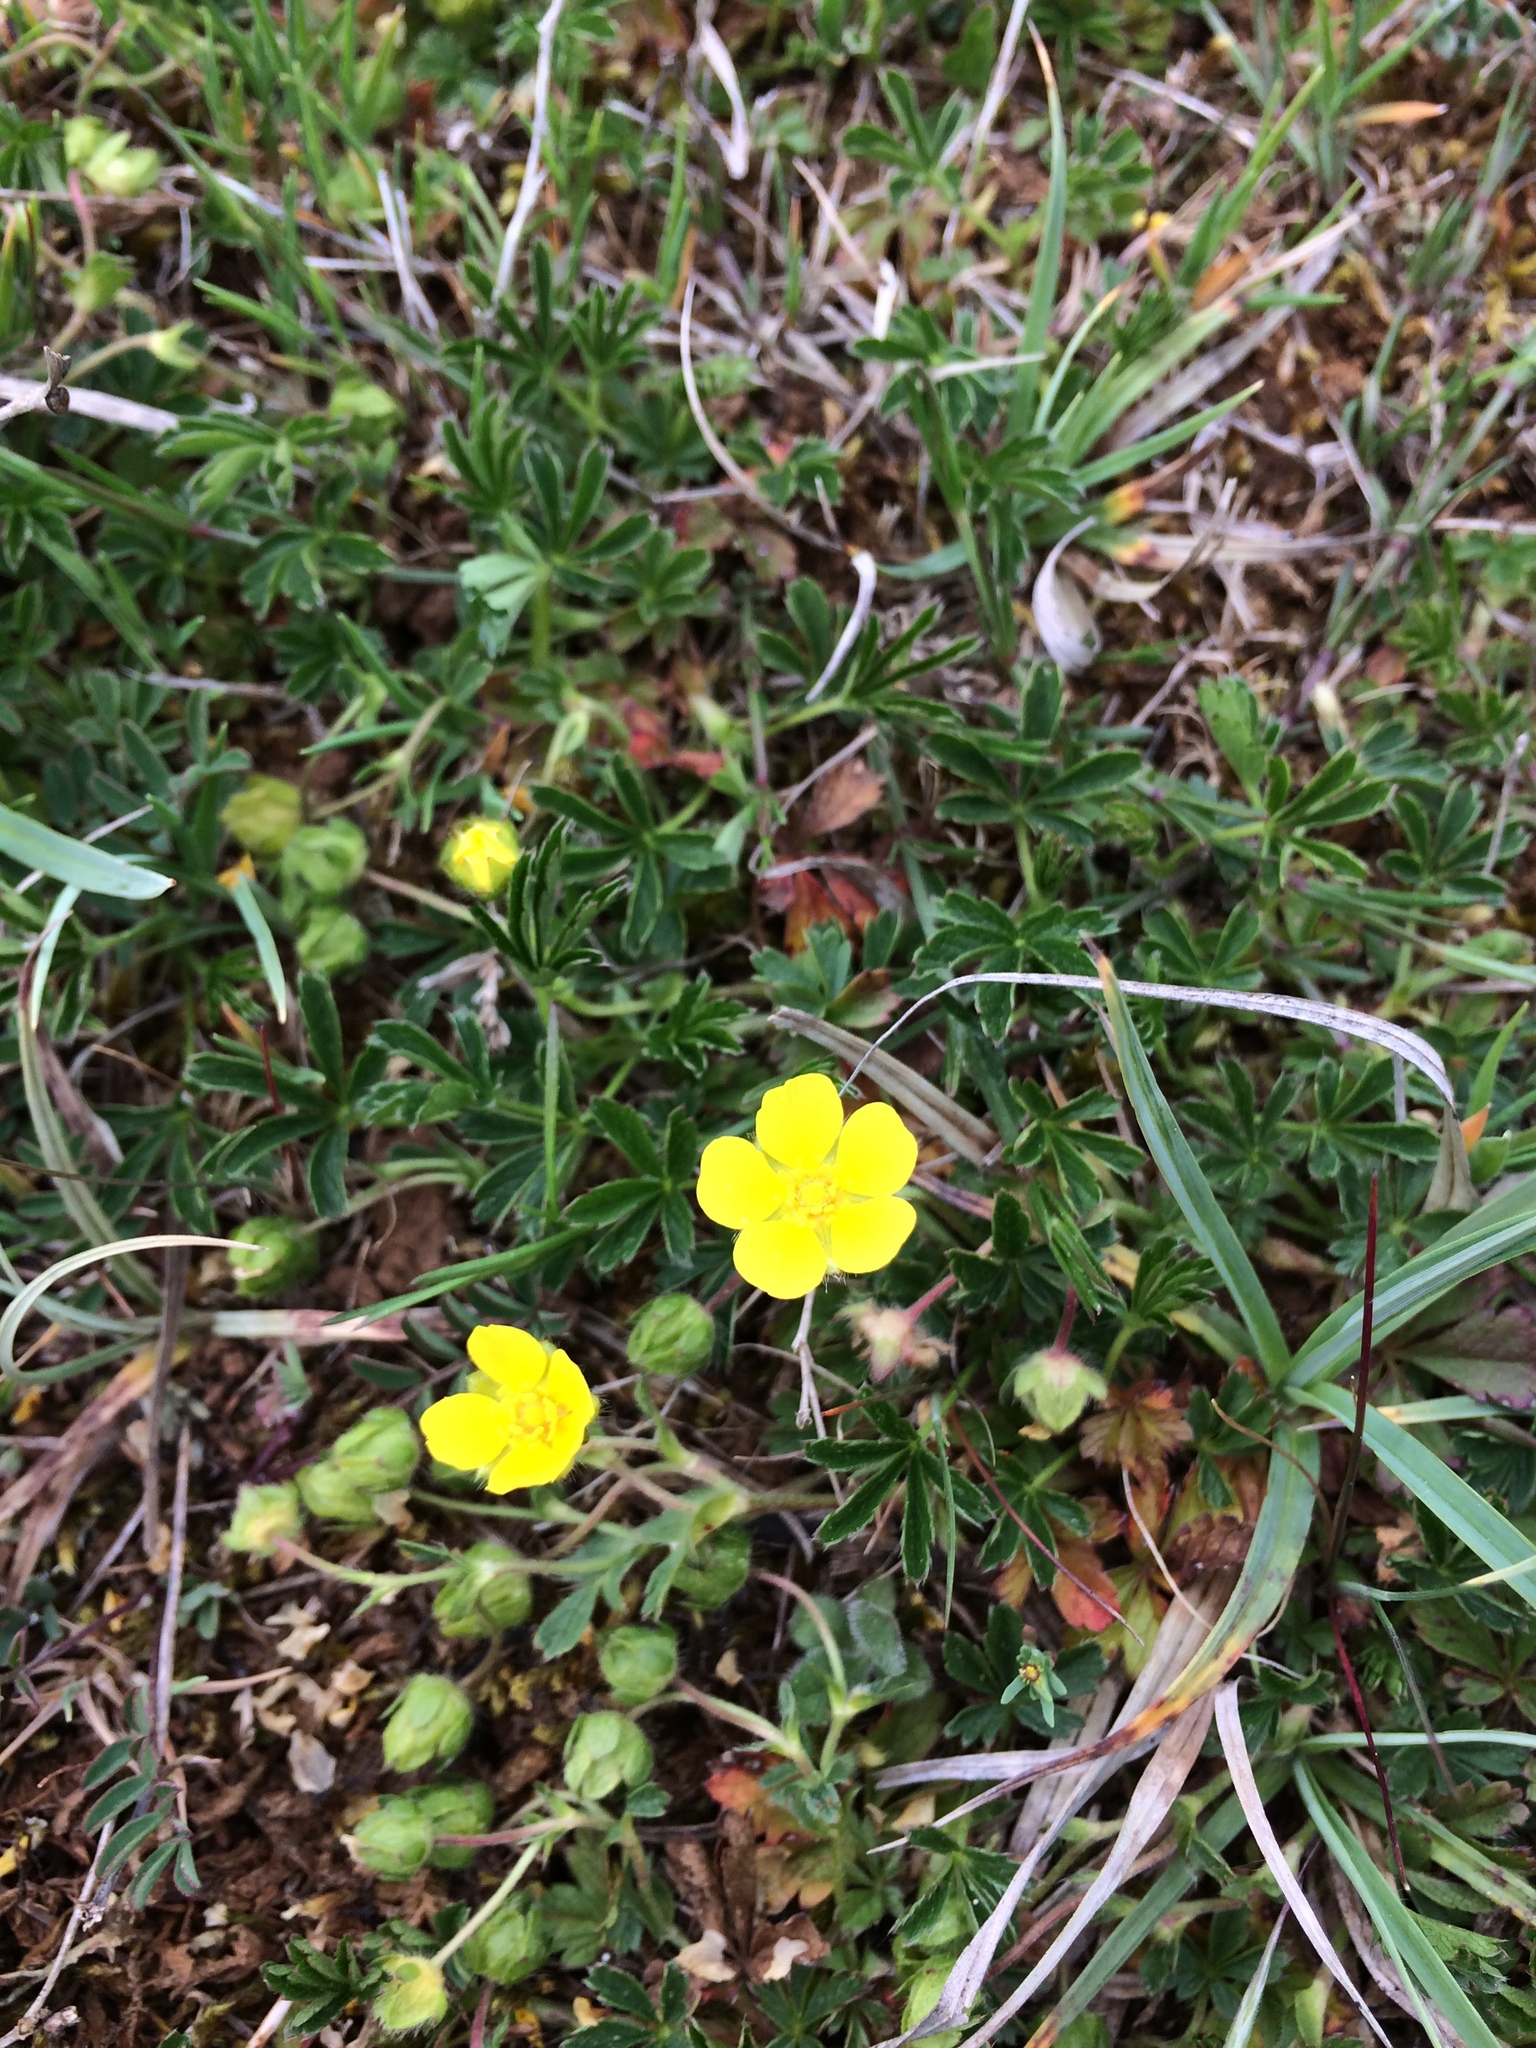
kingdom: Plantae
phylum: Tracheophyta
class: Magnoliopsida
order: Rosales
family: Rosaceae
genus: Potentilla
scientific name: Potentilla verna
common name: Spring cinquefoil
